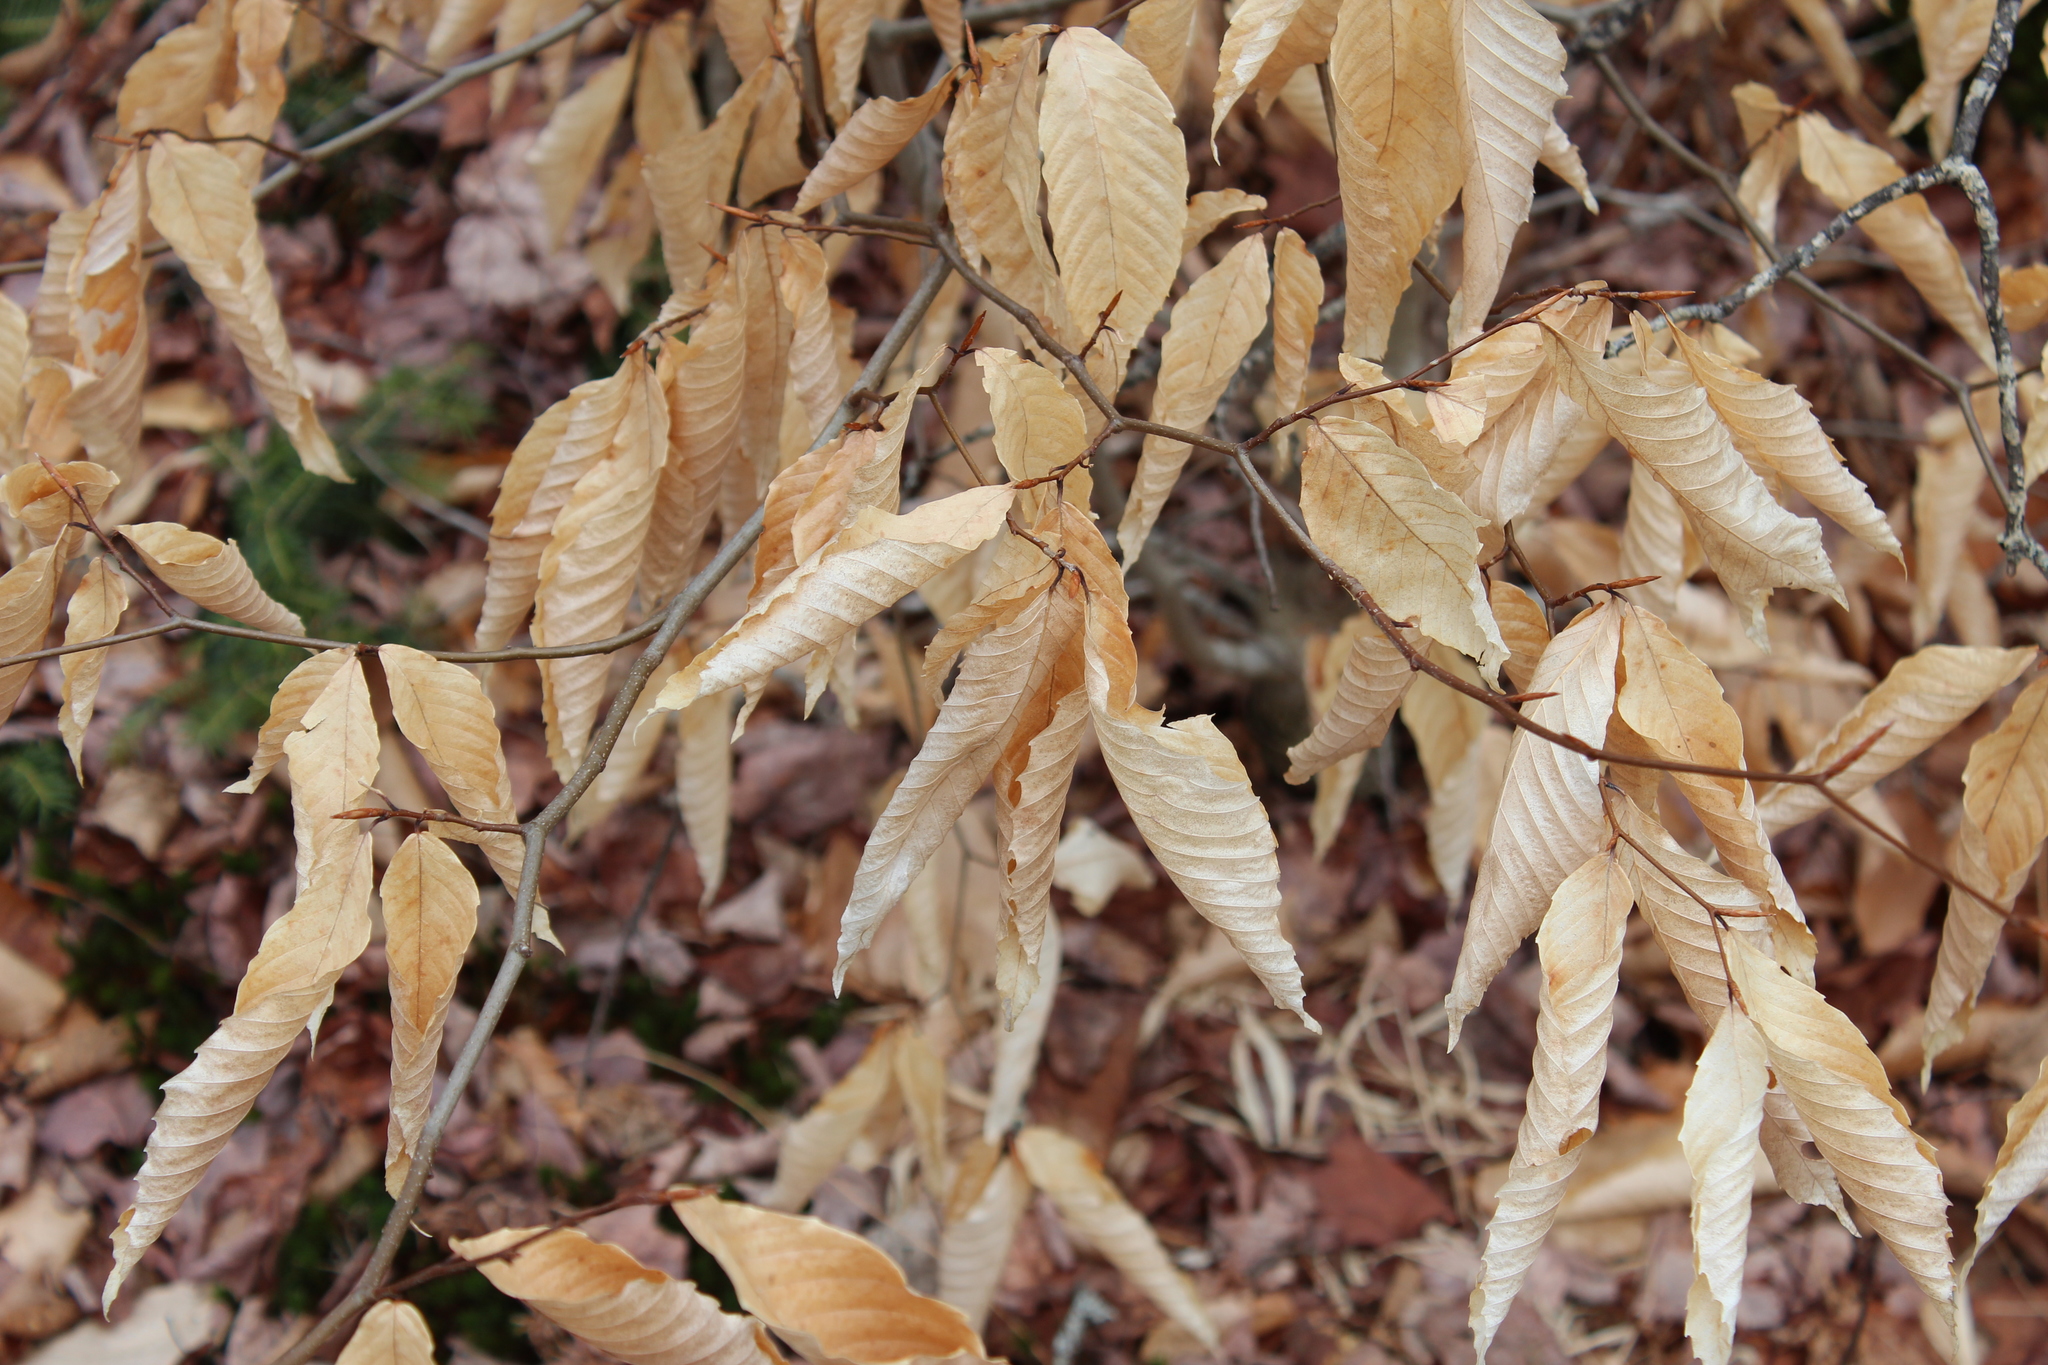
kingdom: Plantae
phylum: Tracheophyta
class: Magnoliopsida
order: Fagales
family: Fagaceae
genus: Fagus
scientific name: Fagus grandifolia
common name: American beech
